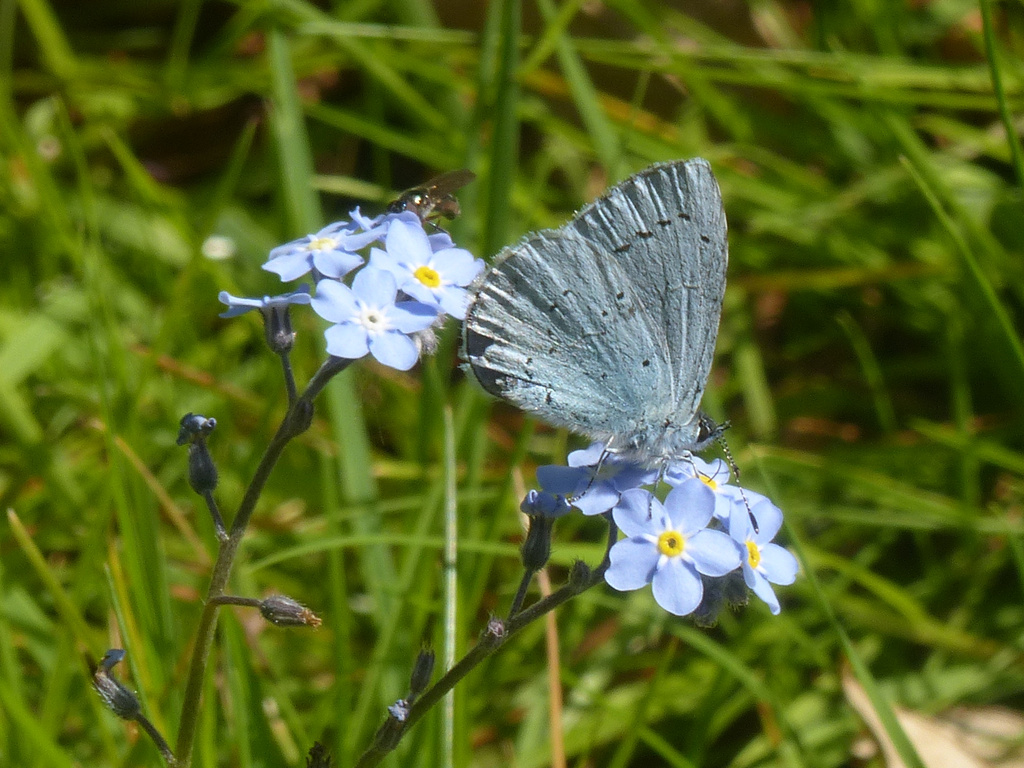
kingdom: Animalia
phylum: Arthropoda
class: Insecta
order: Lepidoptera
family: Lycaenidae
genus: Celastrina
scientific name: Celastrina argiolus
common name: Holly blue
